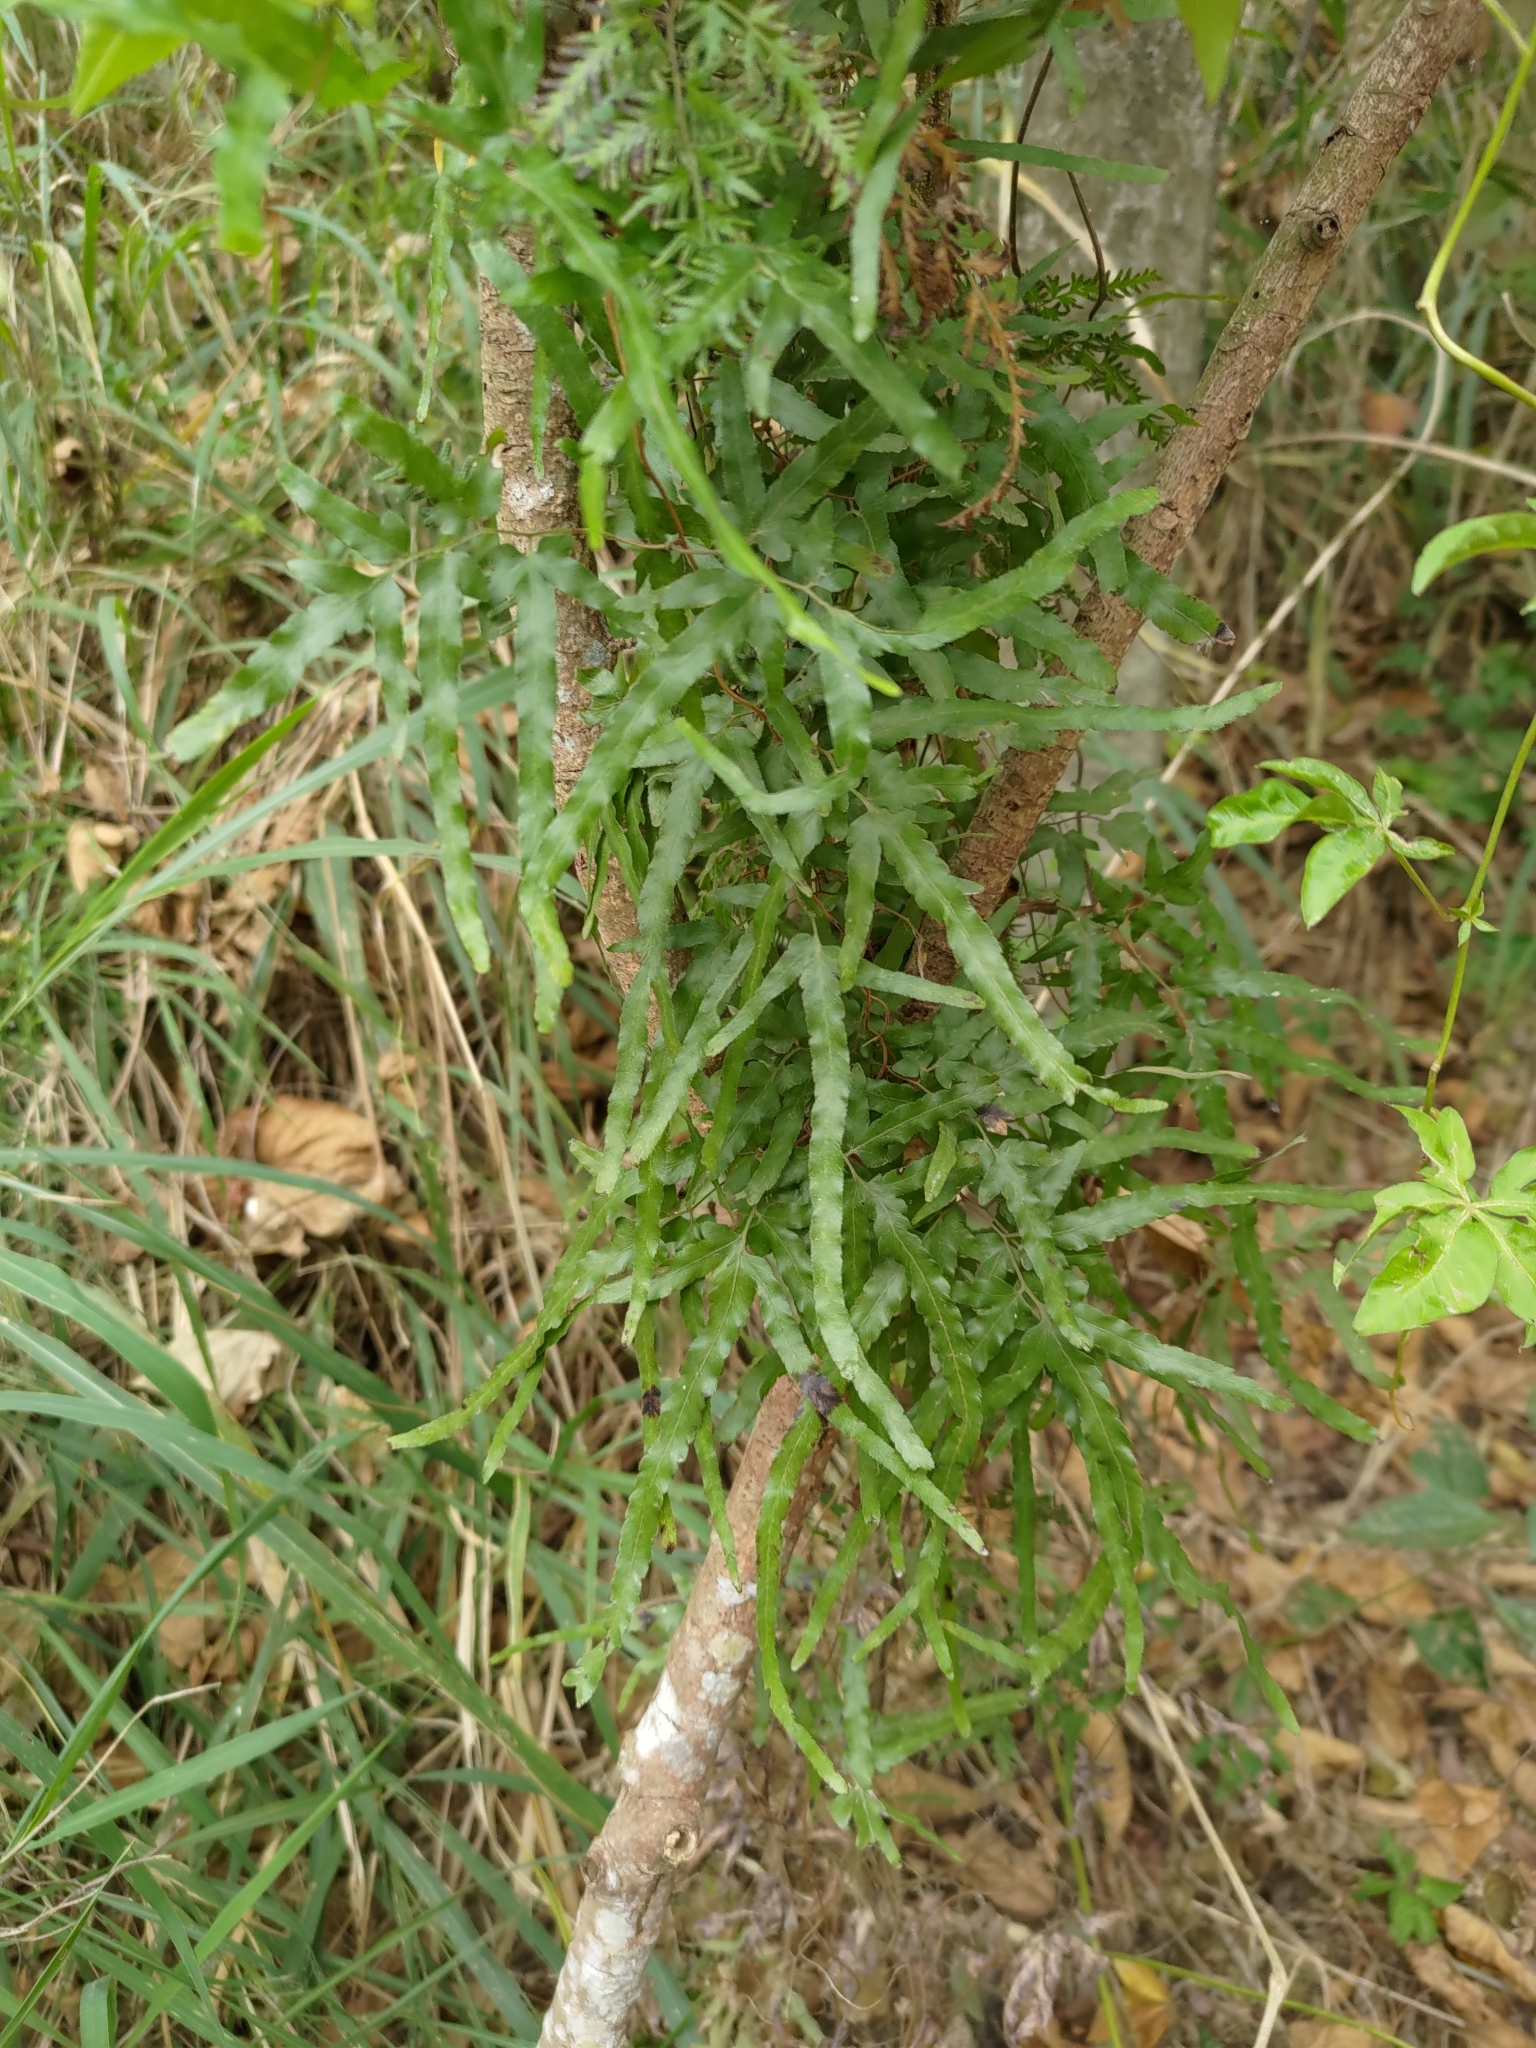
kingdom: Plantae
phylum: Tracheophyta
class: Polypodiopsida
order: Schizaeales
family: Lygodiaceae
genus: Lygodium
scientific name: Lygodium japonicum
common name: Japanese climbing fern
